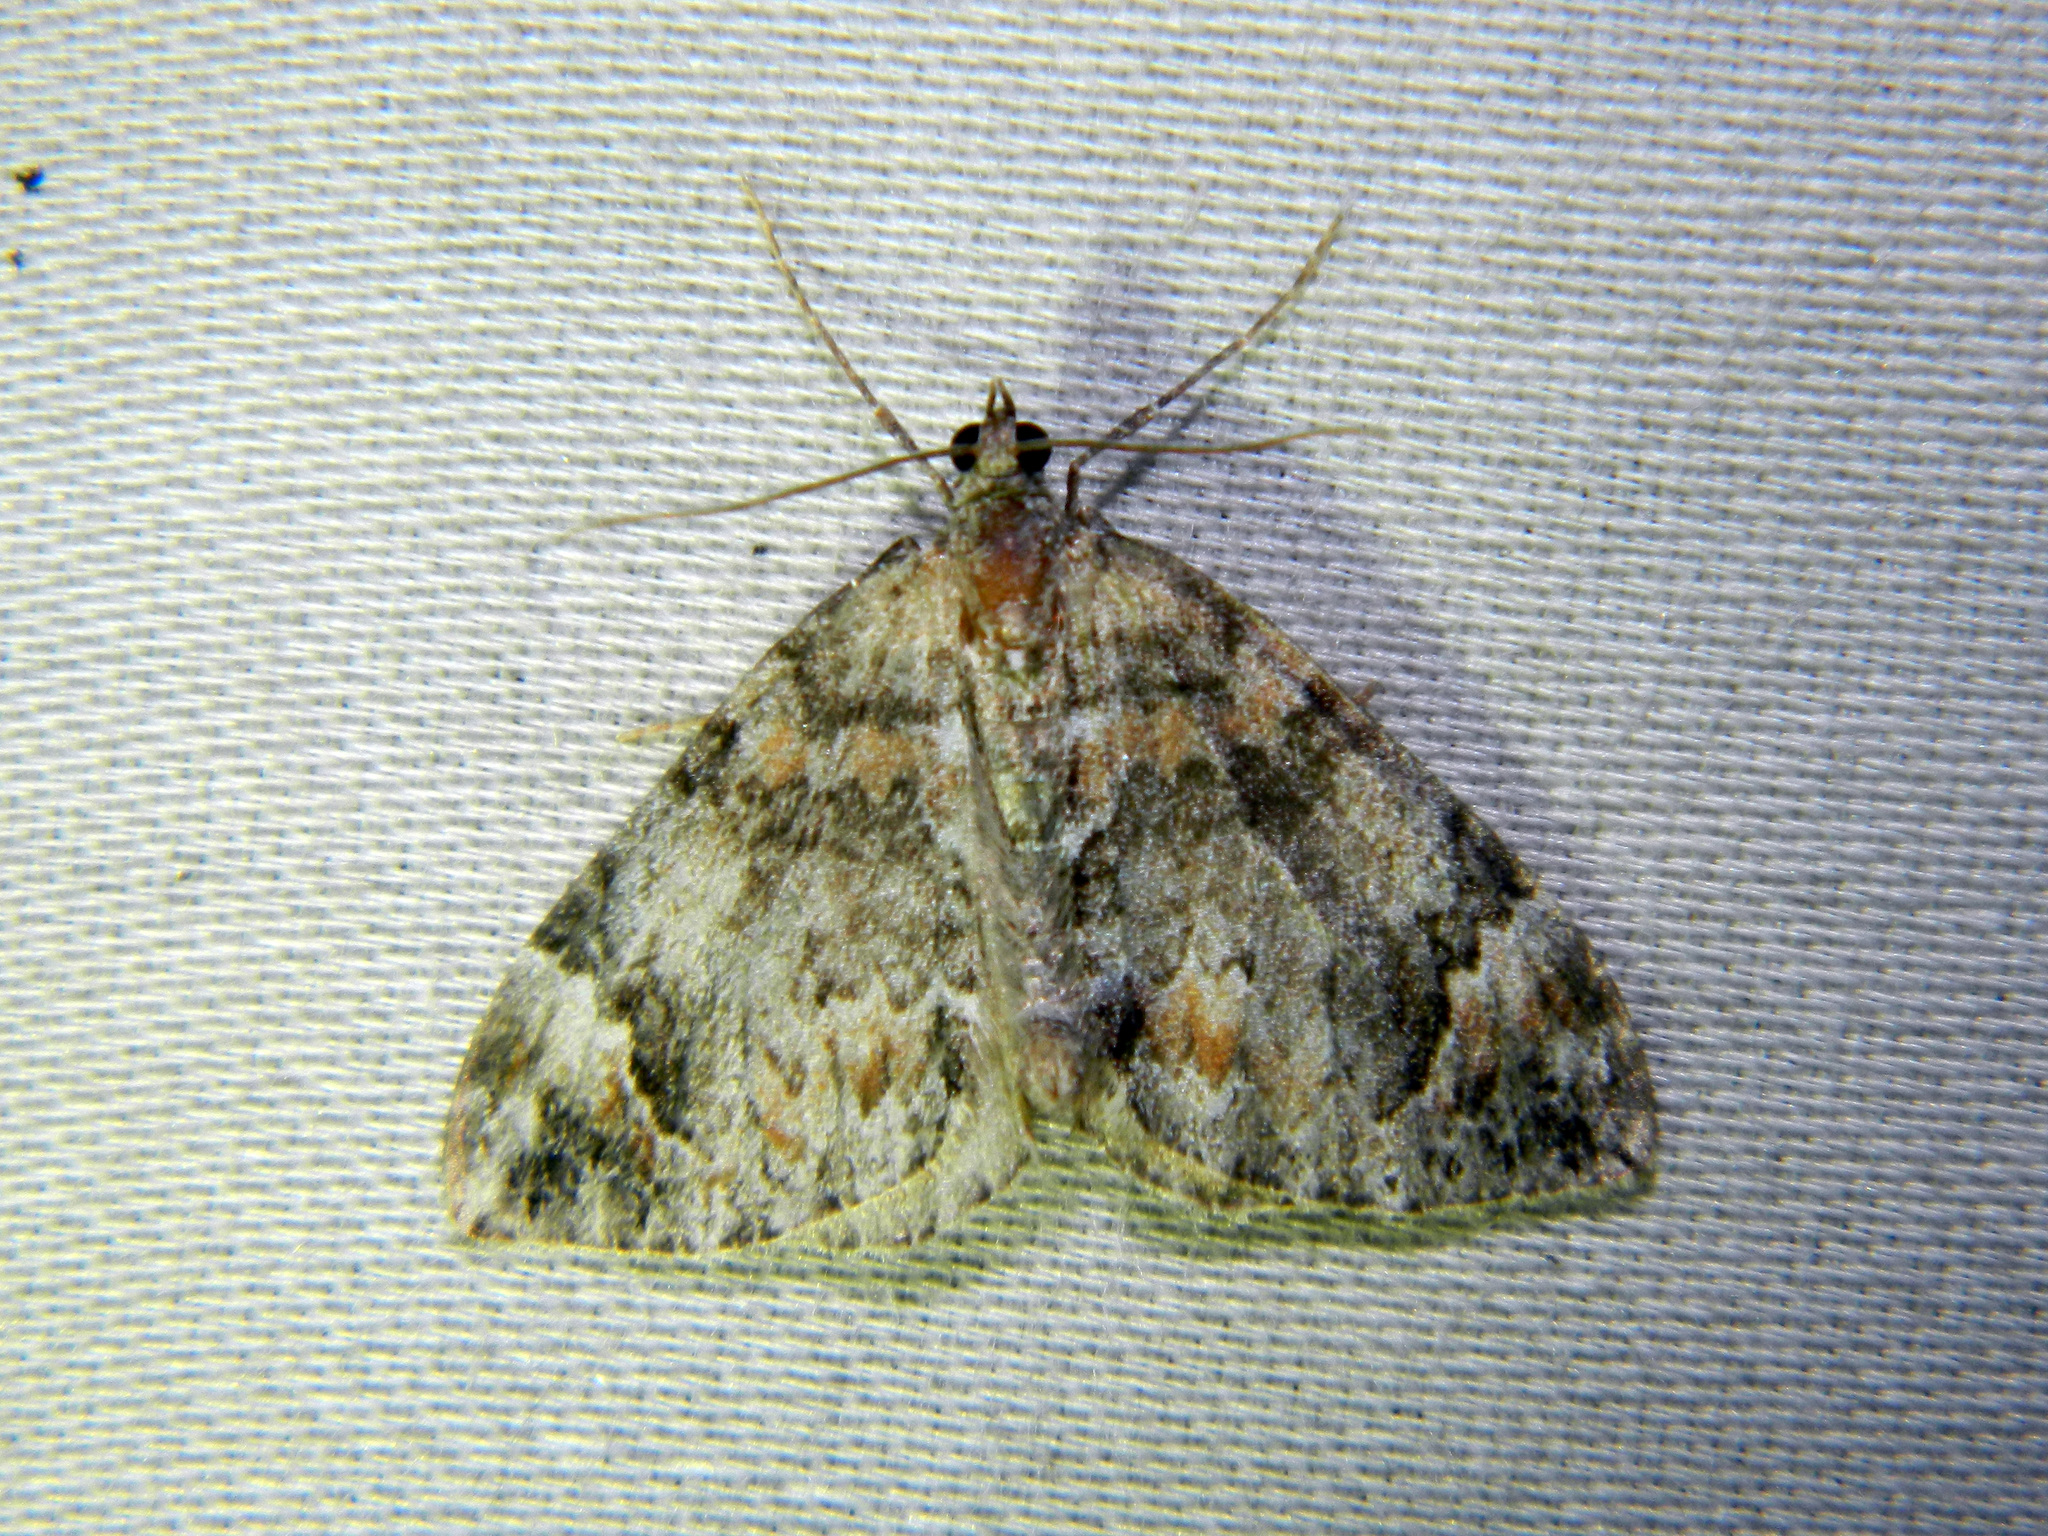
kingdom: Animalia
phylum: Arthropoda
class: Insecta
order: Lepidoptera
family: Geometridae
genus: Dysstroma
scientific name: Dysstroma citrata
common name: Dark marbled carpet
